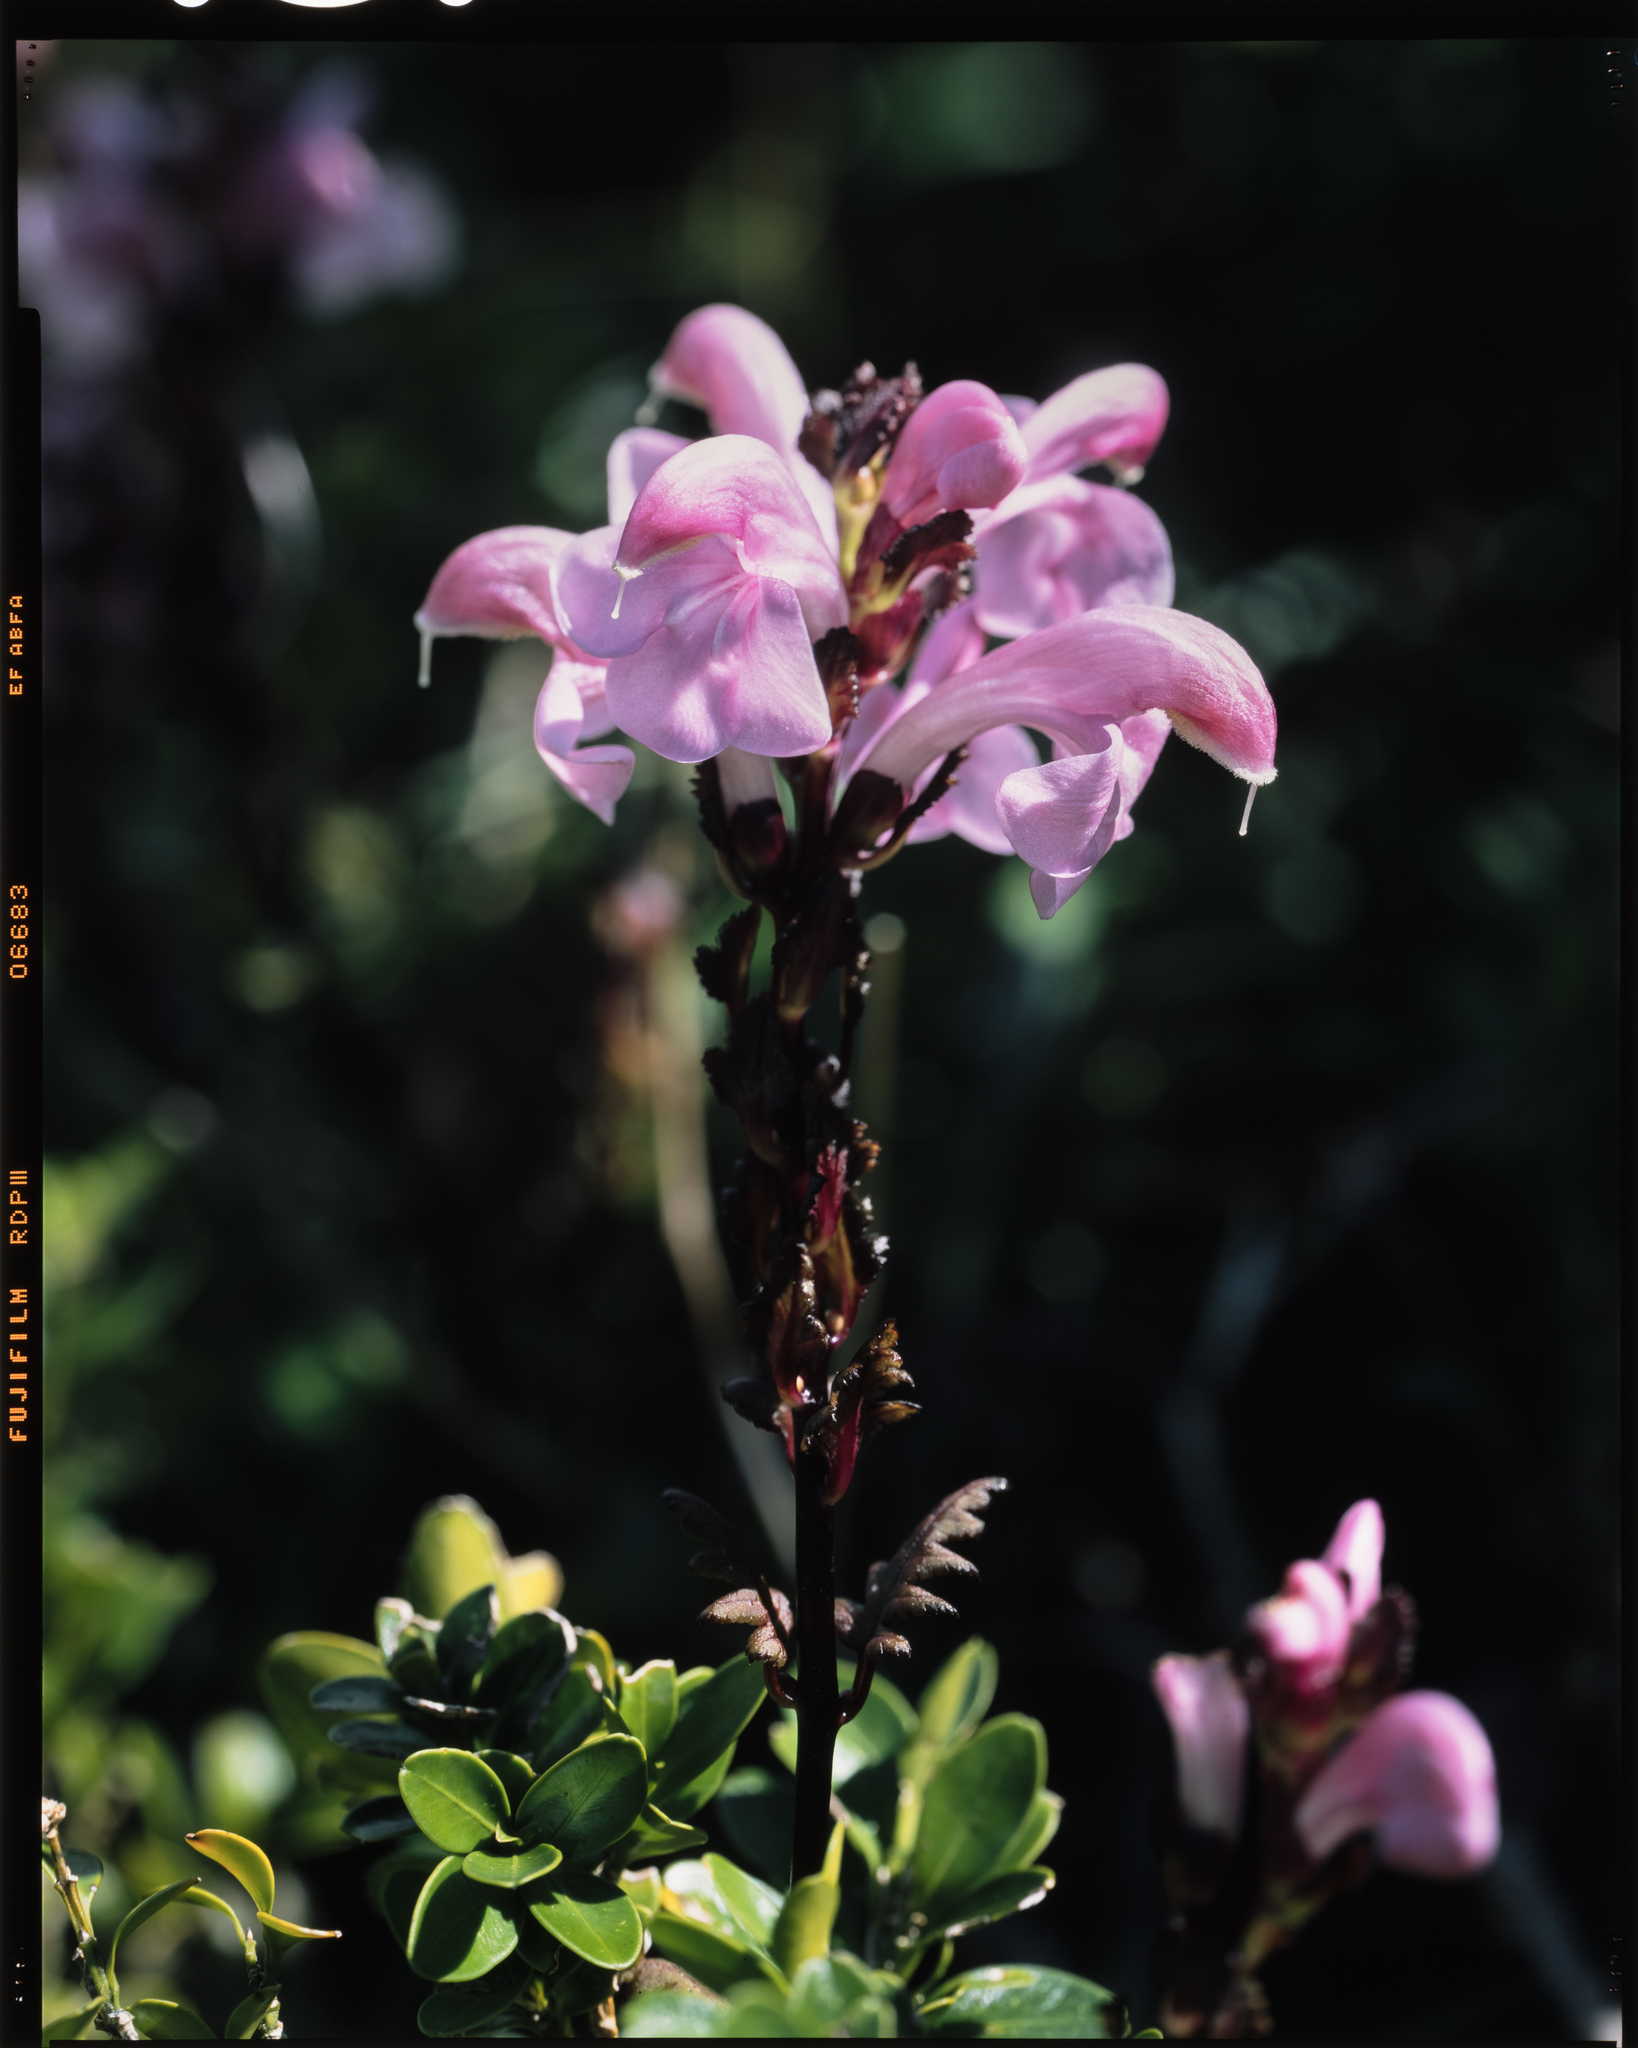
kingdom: Plantae
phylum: Tracheophyta
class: Magnoliopsida
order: Lamiales
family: Orobanchaceae
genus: Pedicularis
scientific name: Pedicularis ochiaiana
